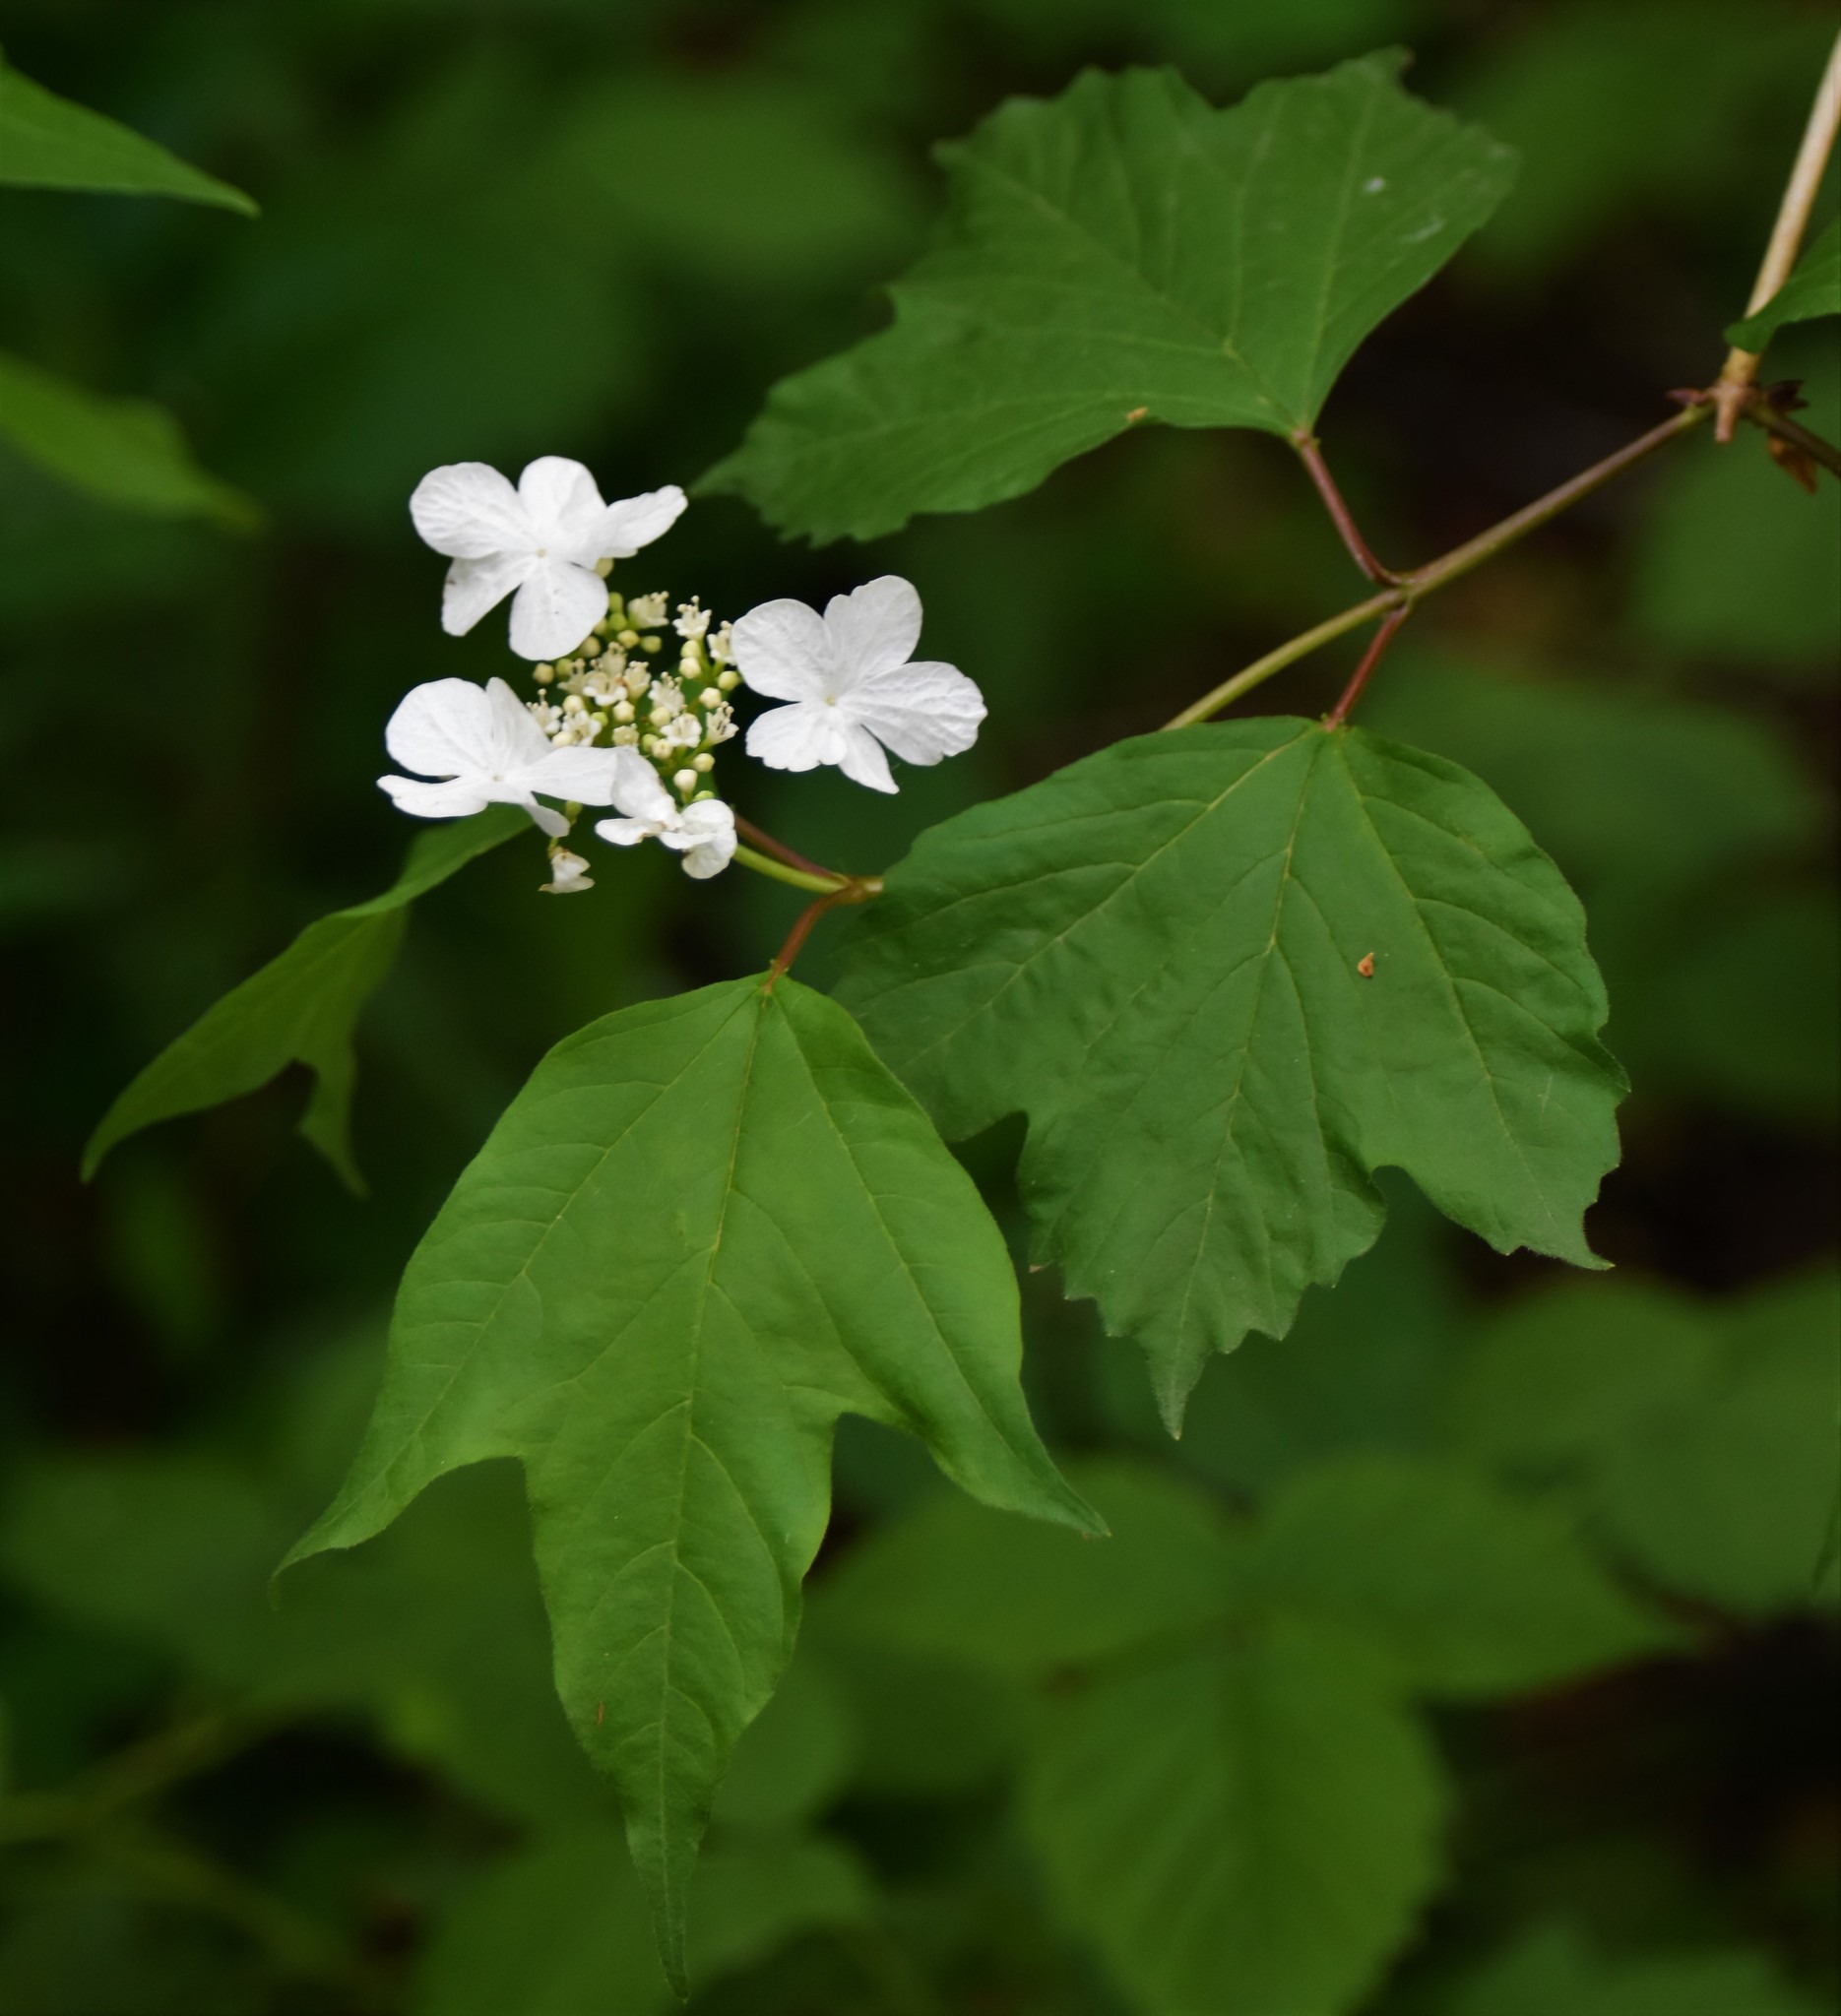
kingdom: Plantae
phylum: Tracheophyta
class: Magnoliopsida
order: Dipsacales
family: Viburnaceae
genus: Viburnum
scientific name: Viburnum opulus
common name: Guelder-rose
